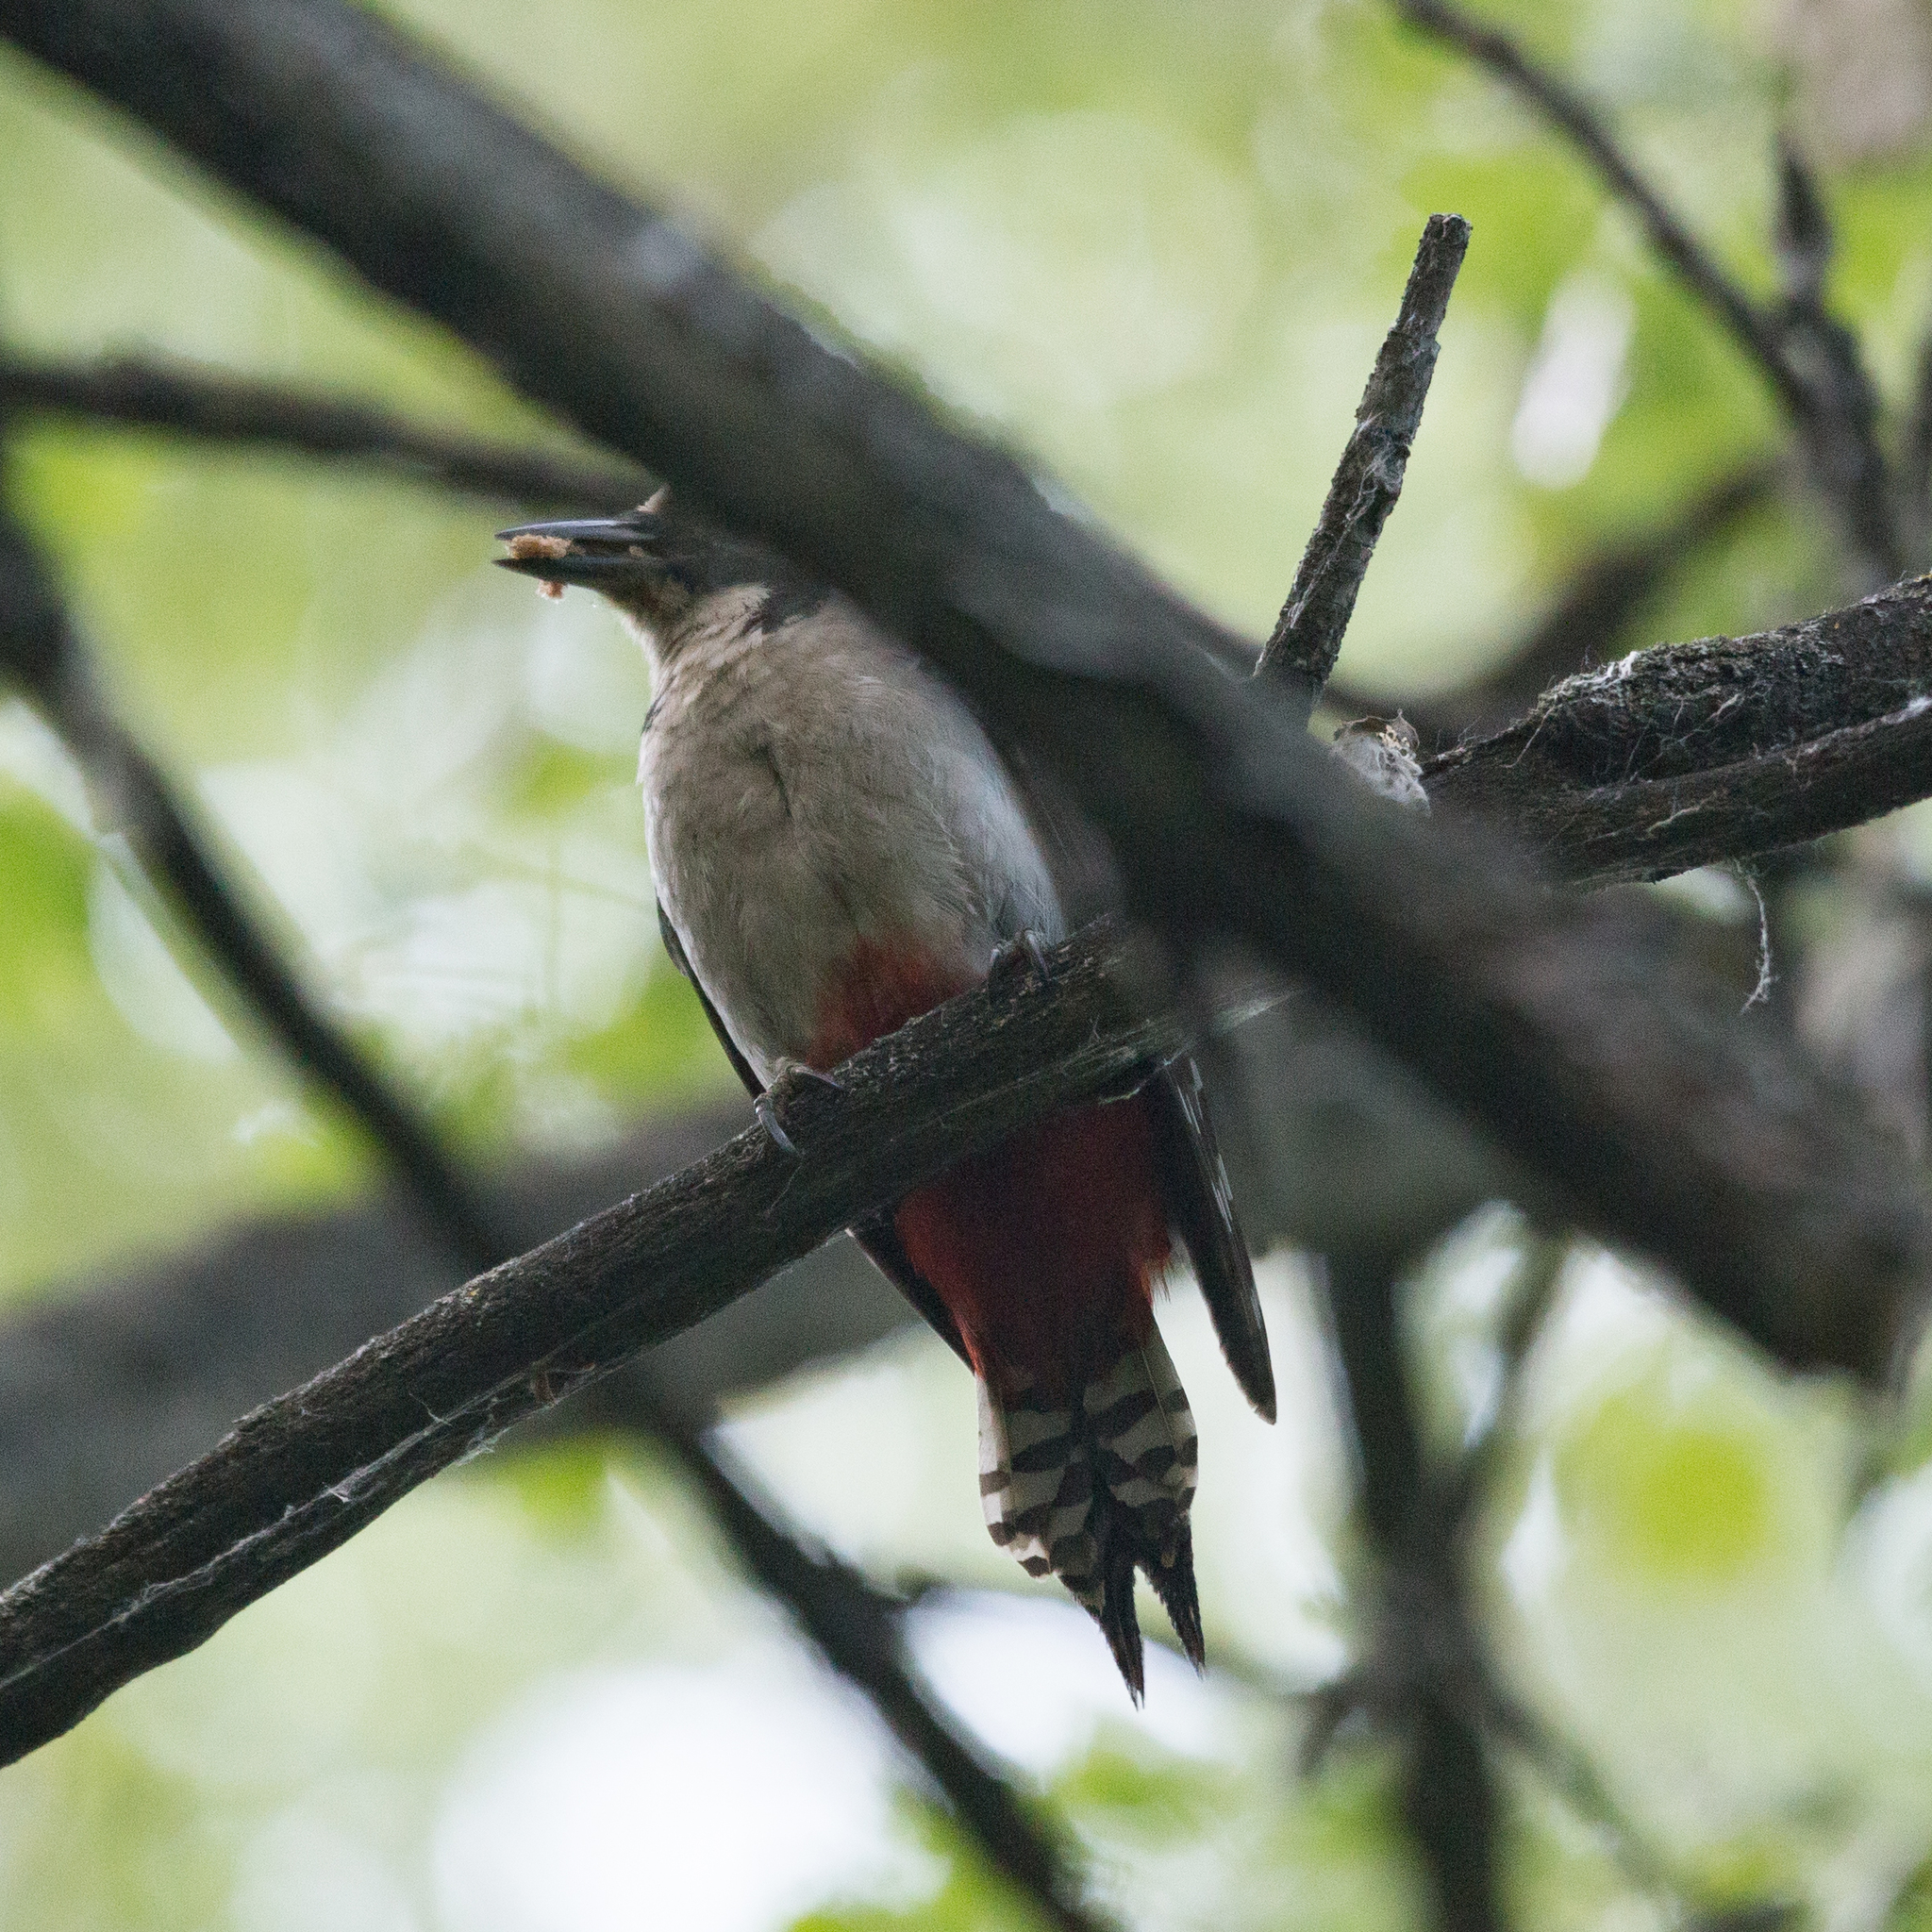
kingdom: Animalia
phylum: Chordata
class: Aves
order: Piciformes
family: Picidae
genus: Dendrocopos
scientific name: Dendrocopos major
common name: Great spotted woodpecker
